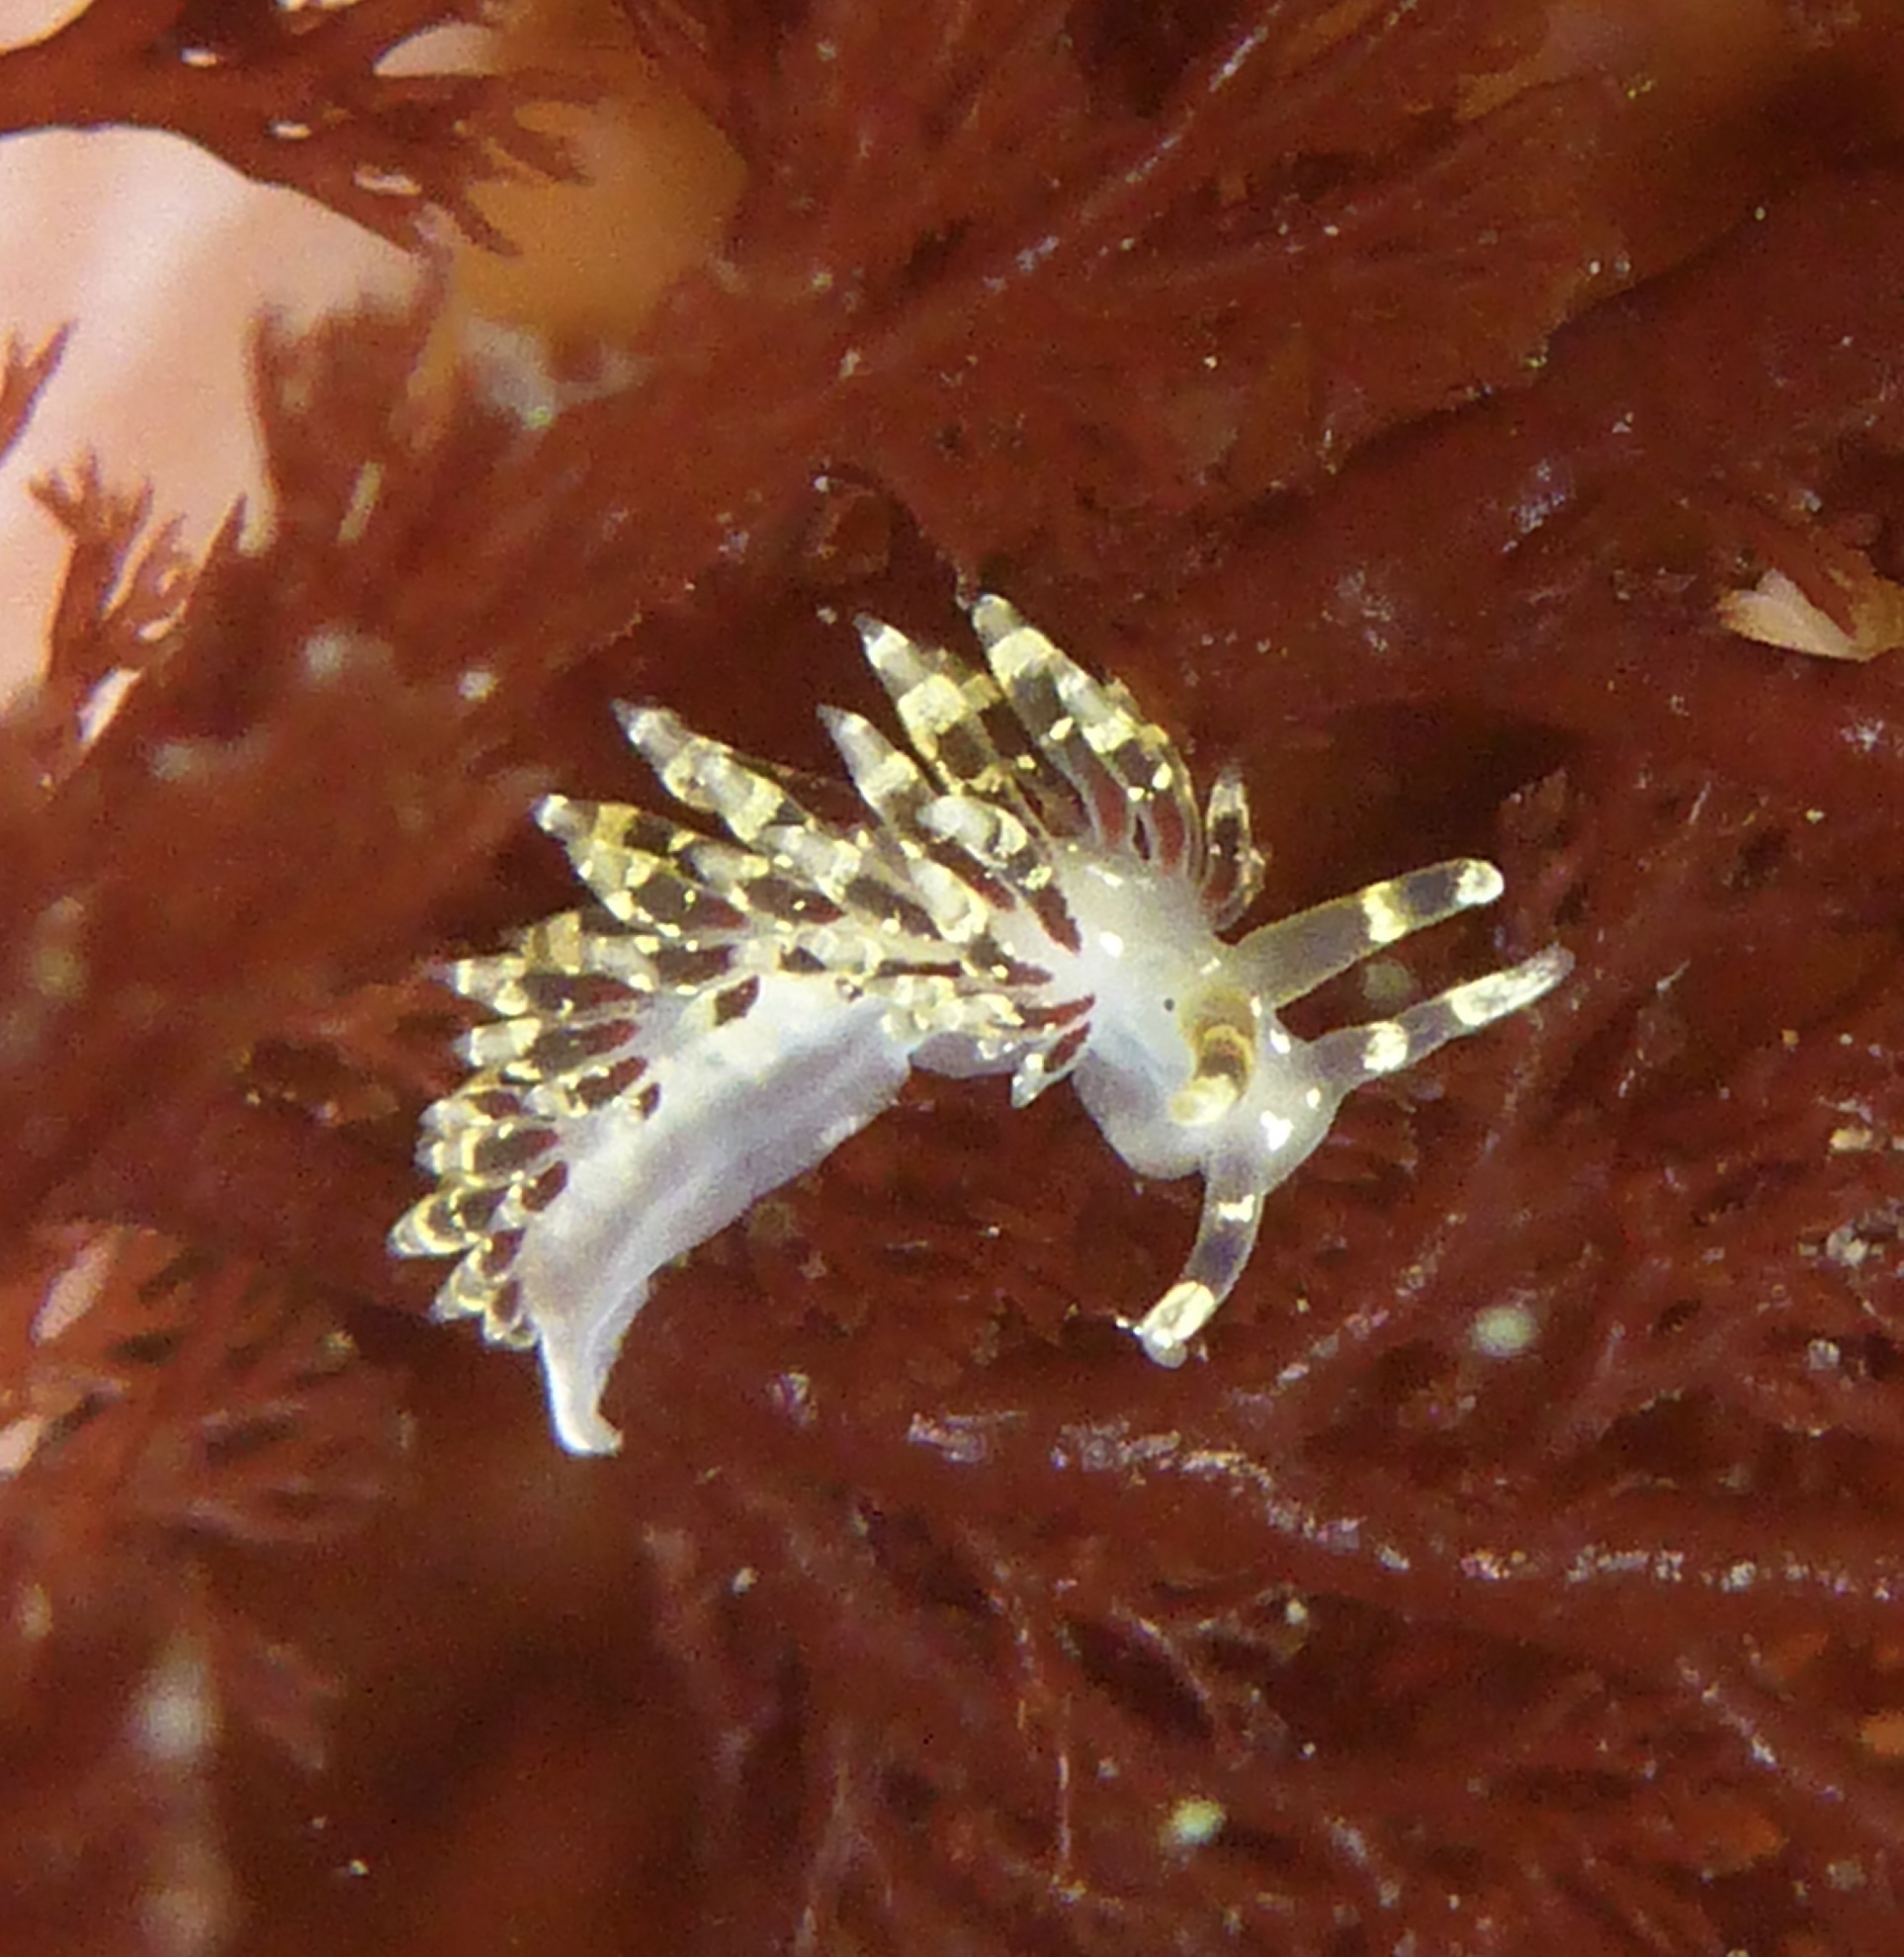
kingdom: Animalia
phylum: Mollusca
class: Gastropoda
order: Nudibranchia
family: Abronicidae
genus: Abronica
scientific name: Abronica abronia
